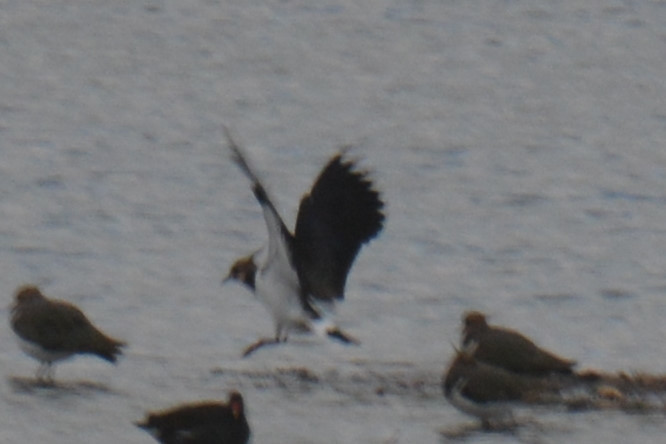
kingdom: Animalia
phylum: Chordata
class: Aves
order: Charadriiformes
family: Charadriidae
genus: Vanellus
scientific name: Vanellus vanellus
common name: Northern lapwing
